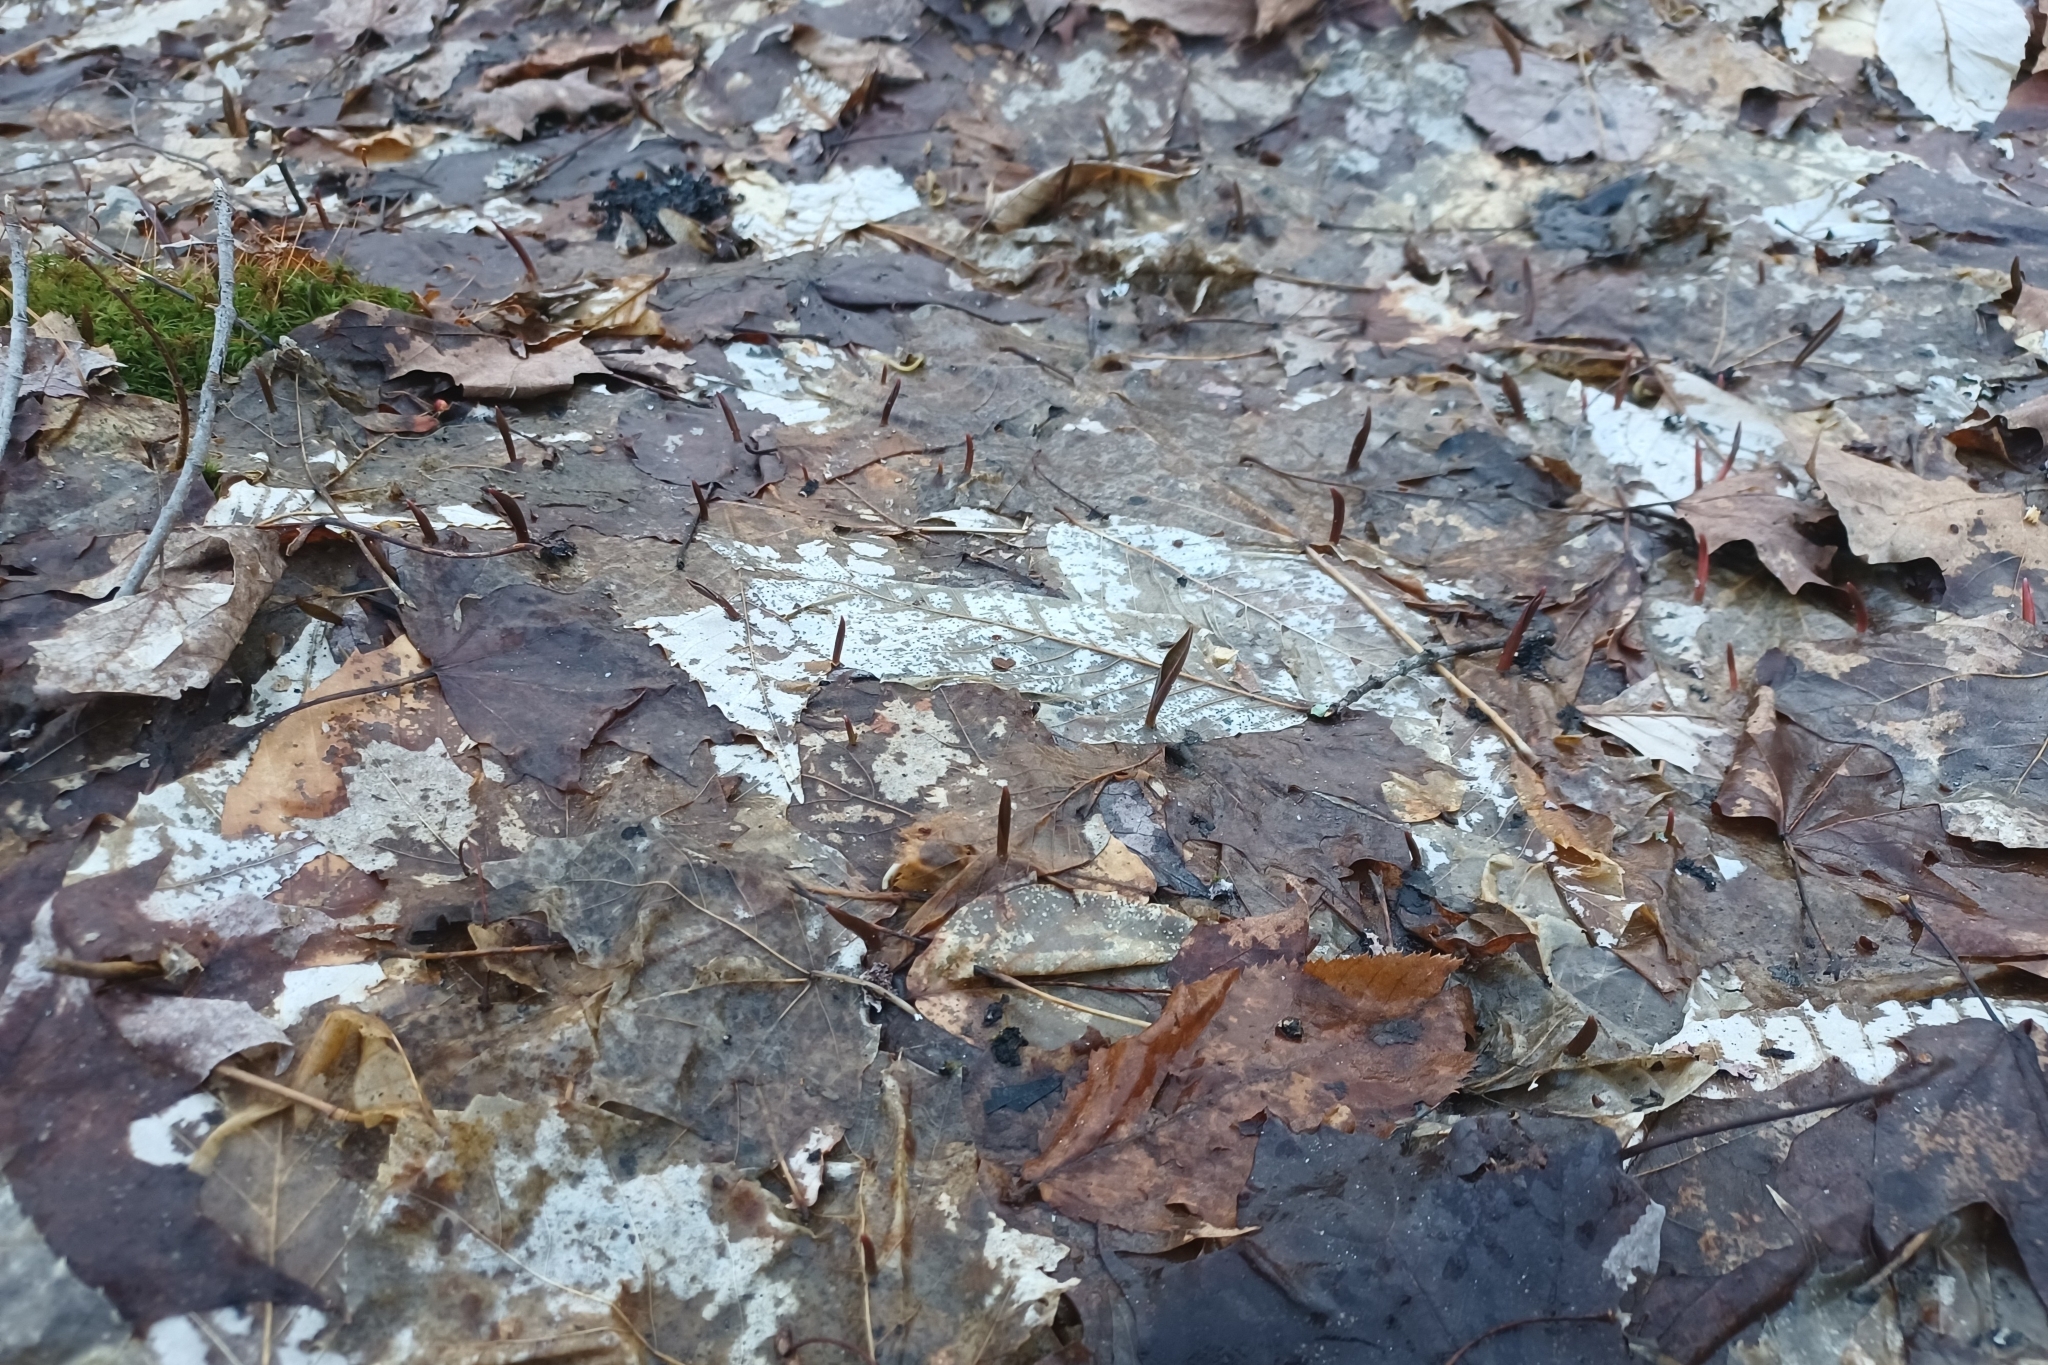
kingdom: Plantae
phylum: Tracheophyta
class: Liliopsida
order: Liliales
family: Liliaceae
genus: Erythronium
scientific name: Erythronium americanum
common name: Yellow adder's-tongue
